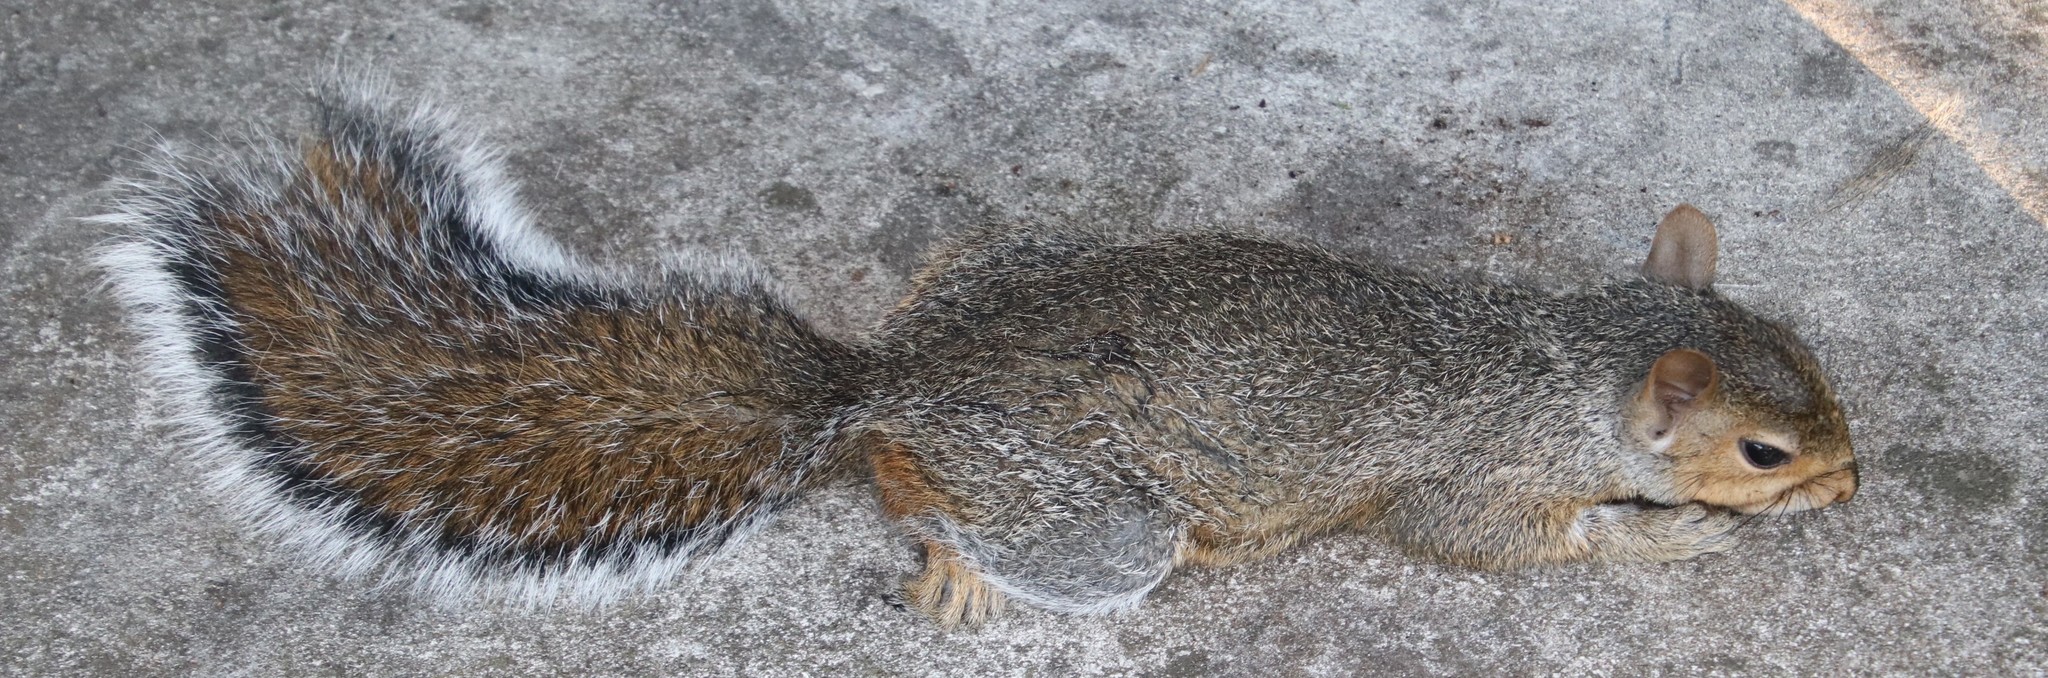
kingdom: Animalia
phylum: Chordata
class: Mammalia
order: Rodentia
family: Sciuridae
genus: Sciurus
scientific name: Sciurus carolinensis
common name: Eastern gray squirrel
